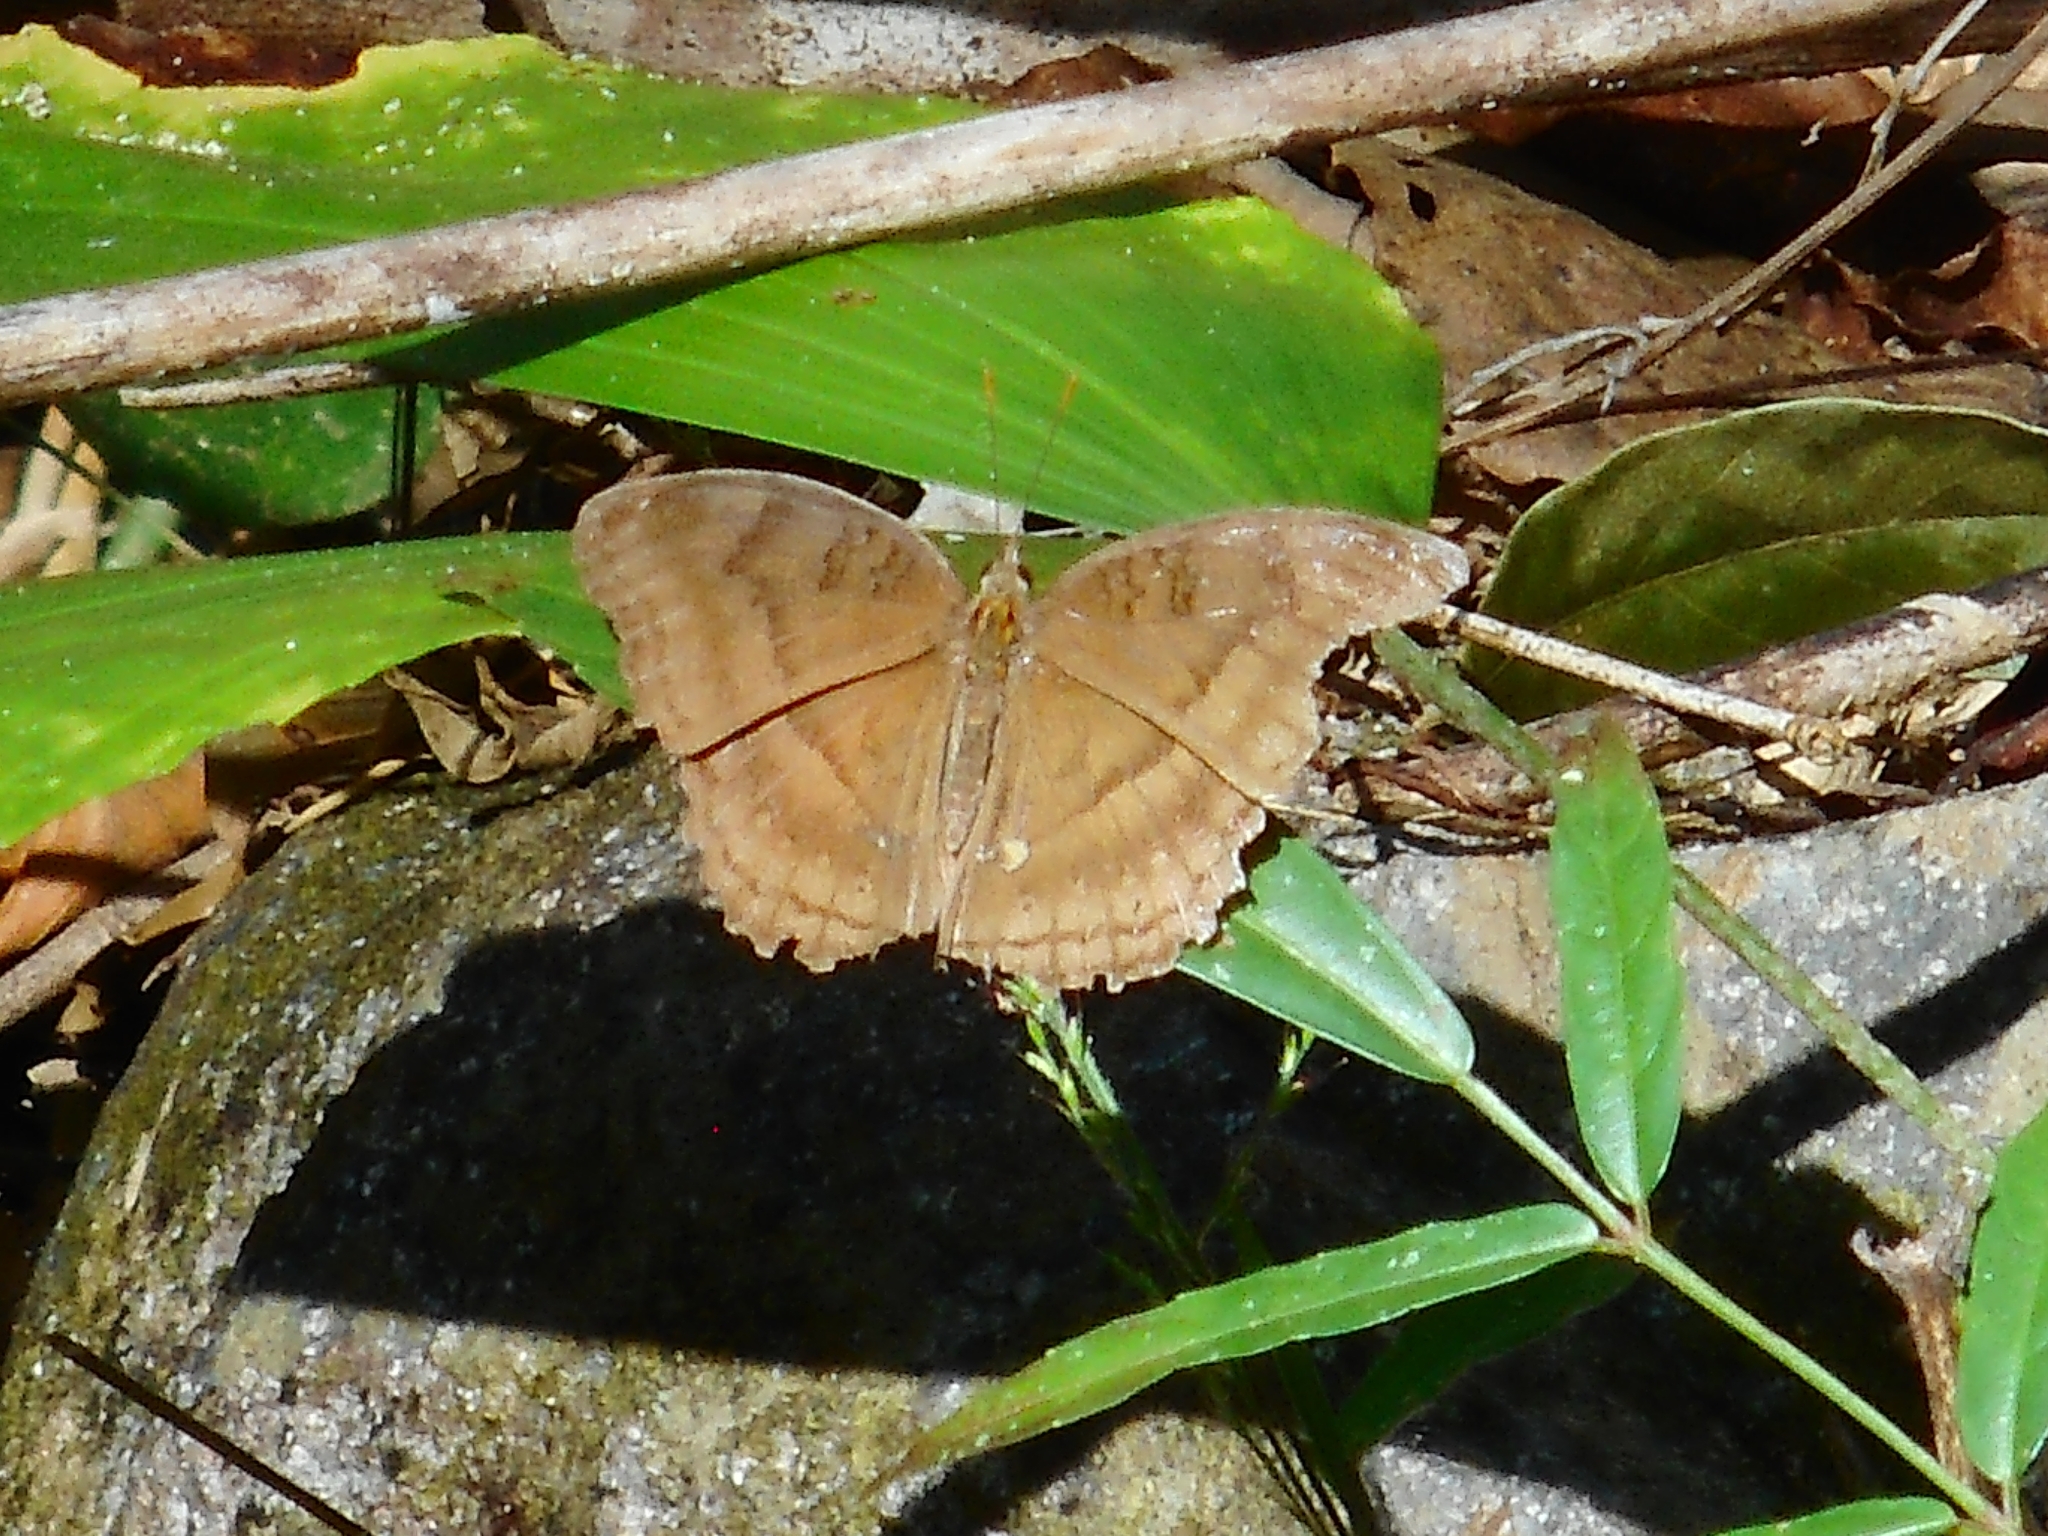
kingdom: Animalia
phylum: Arthropoda
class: Insecta
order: Lepidoptera
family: Nymphalidae
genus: Junonia
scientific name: Junonia iphita
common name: Chocolate pansy
